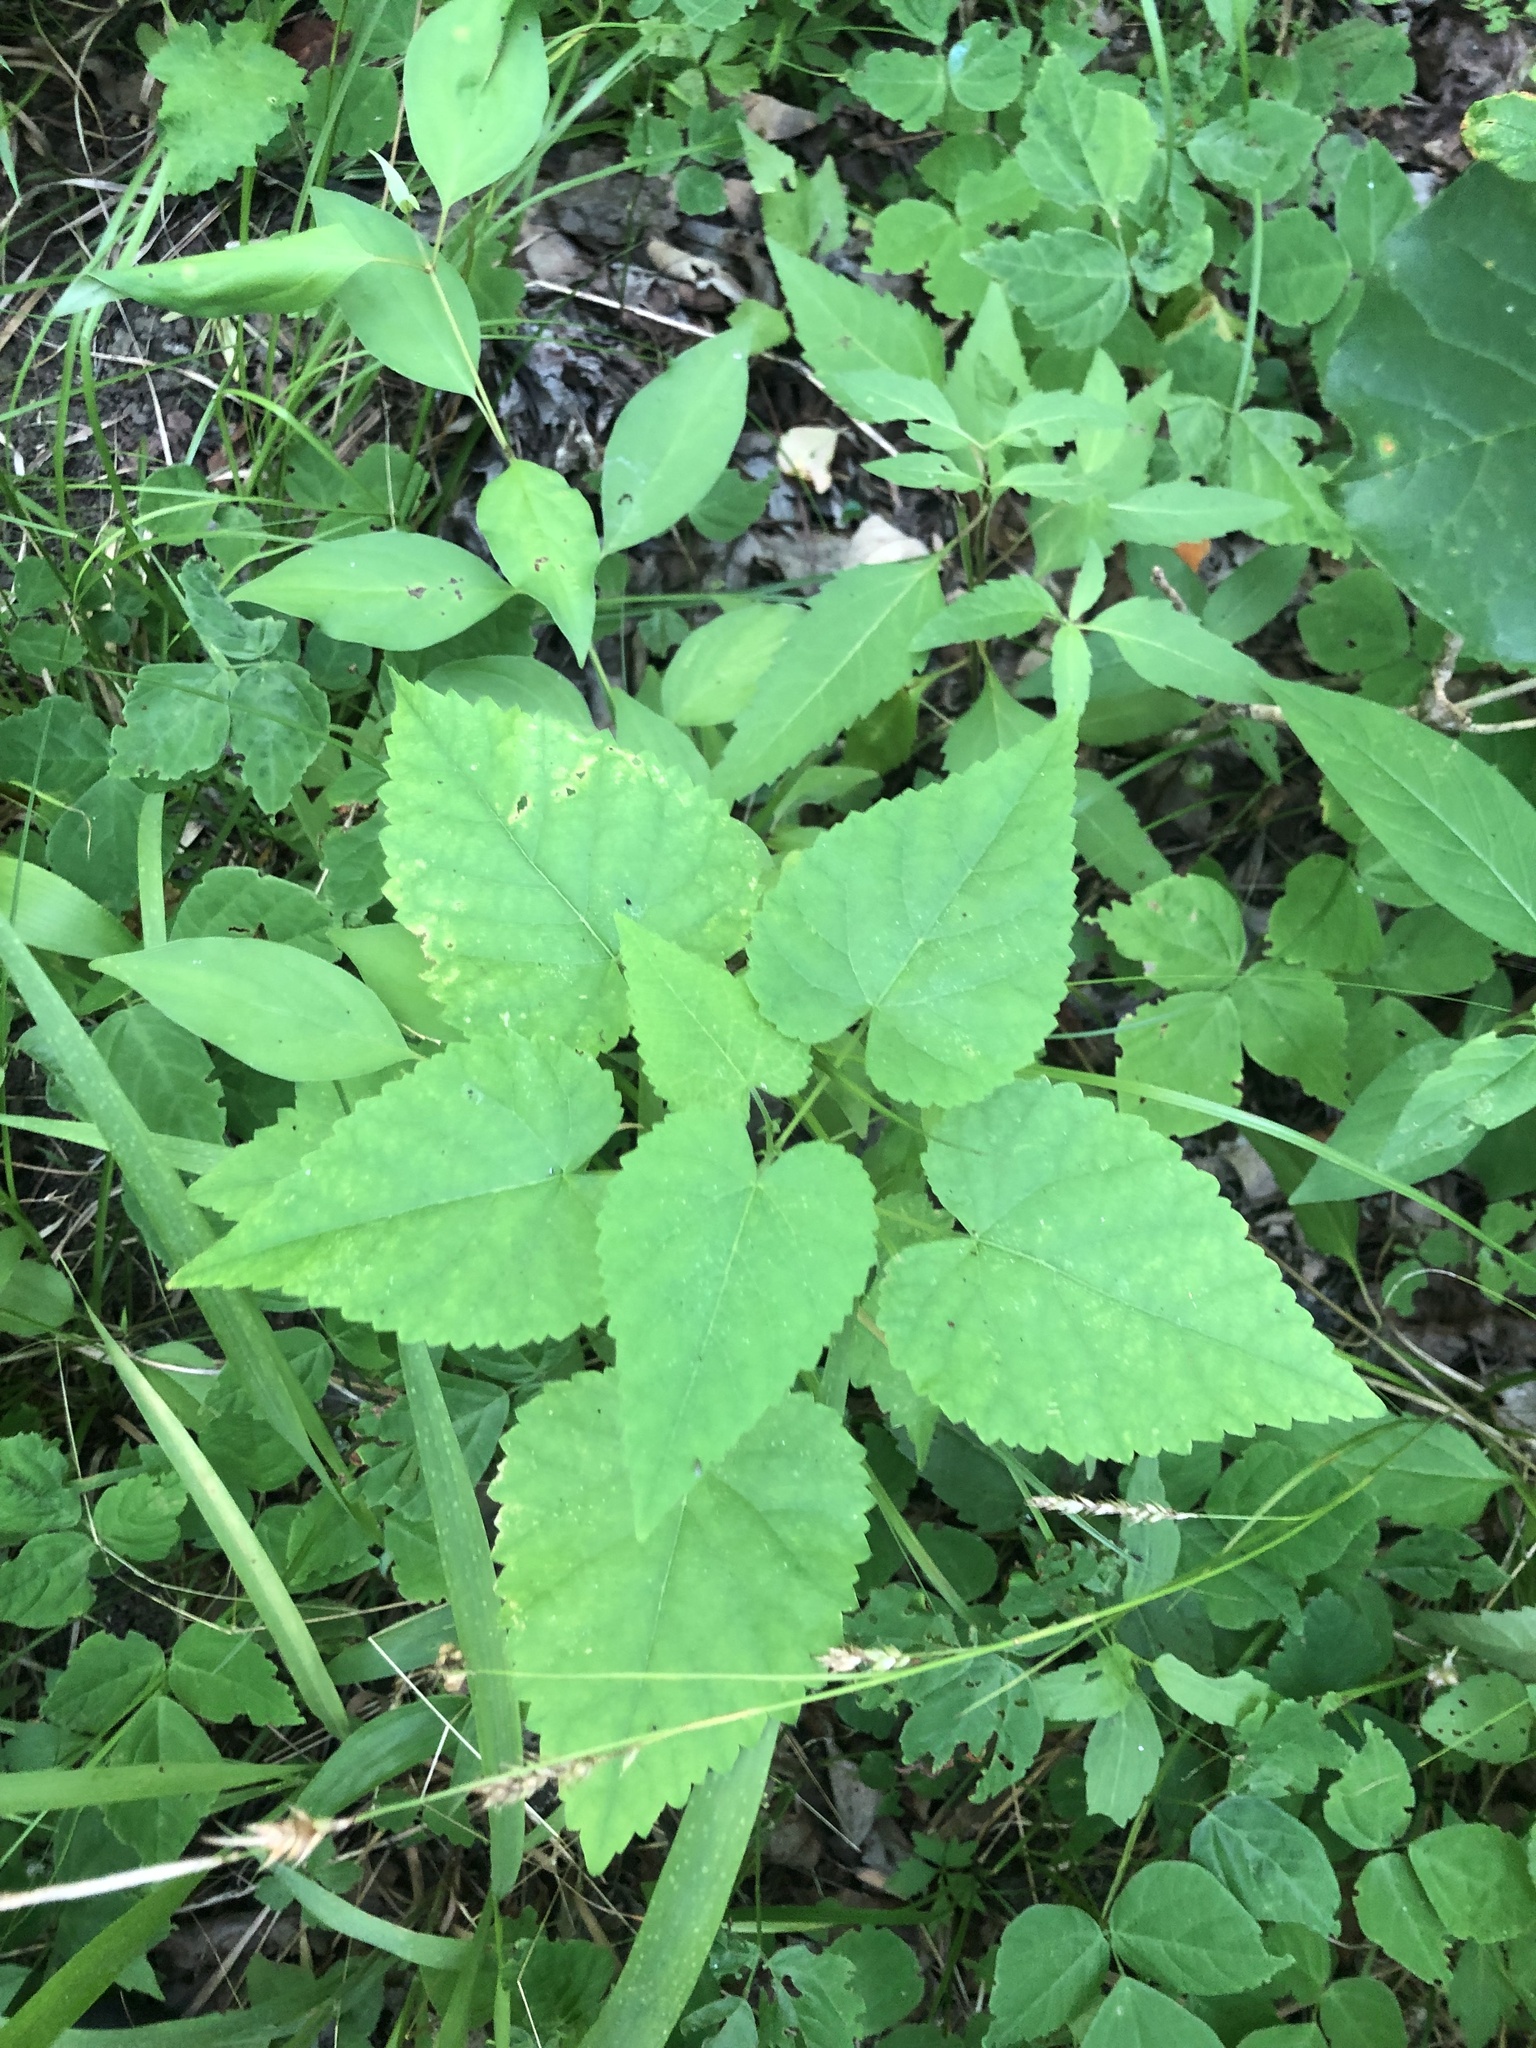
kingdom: Plantae
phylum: Tracheophyta
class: Magnoliopsida
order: Malpighiales
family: Euphorbiaceae
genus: Tragia
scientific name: Tragia cordata
